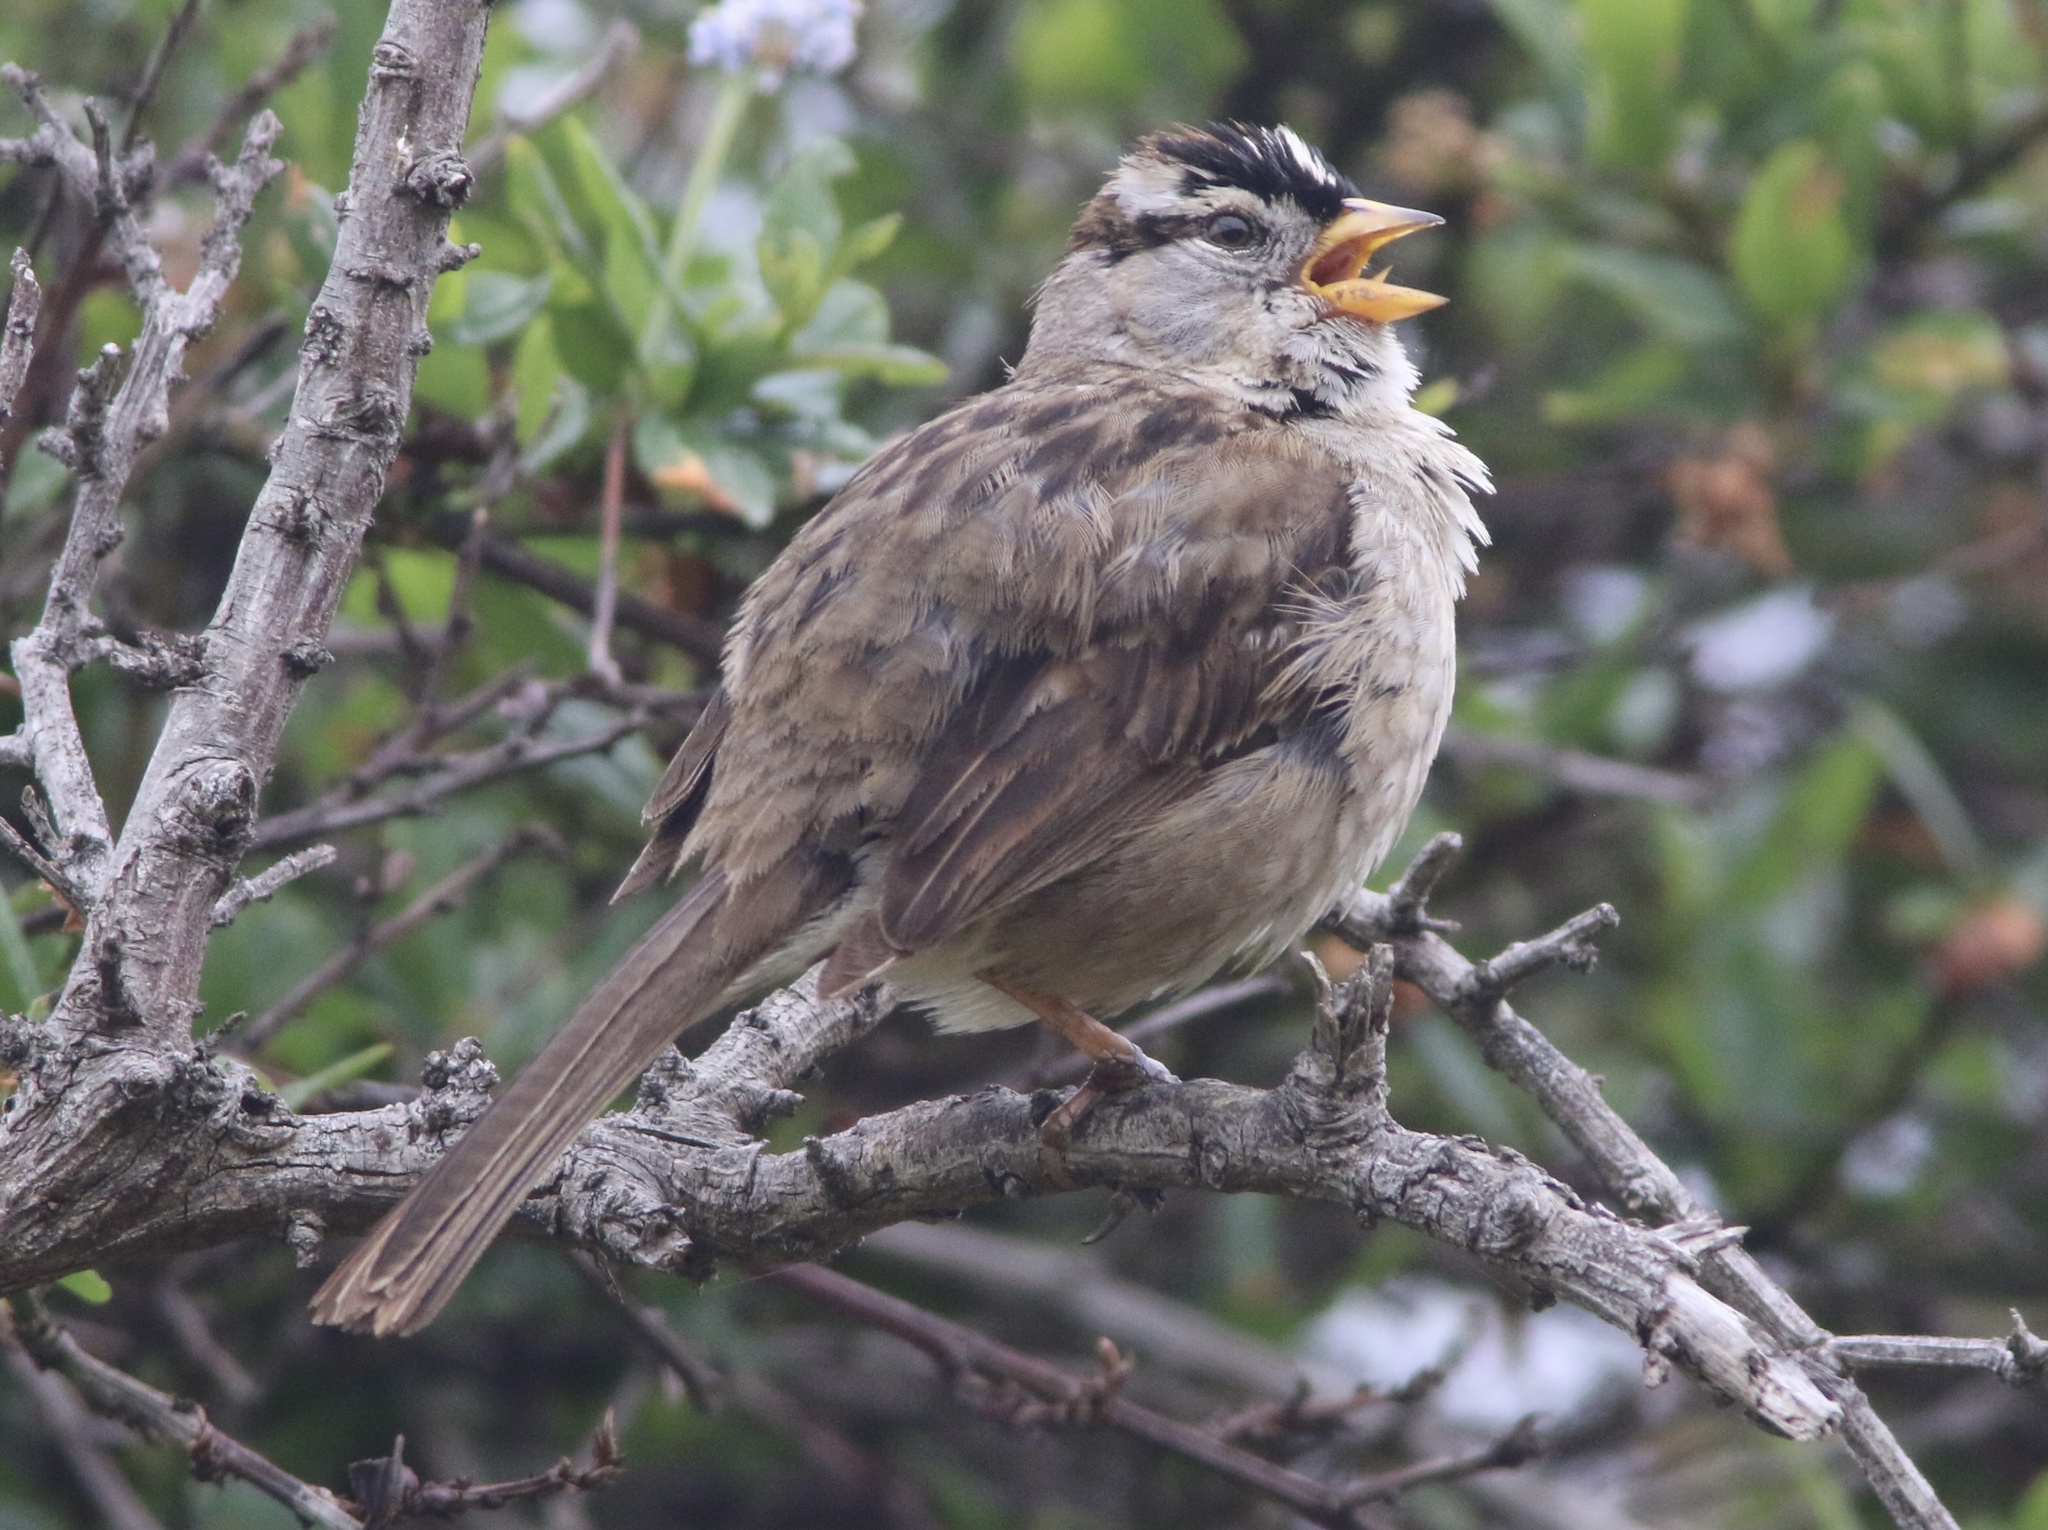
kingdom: Animalia
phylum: Chordata
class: Aves
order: Passeriformes
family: Passerellidae
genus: Zonotrichia
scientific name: Zonotrichia leucophrys
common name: White-crowned sparrow
